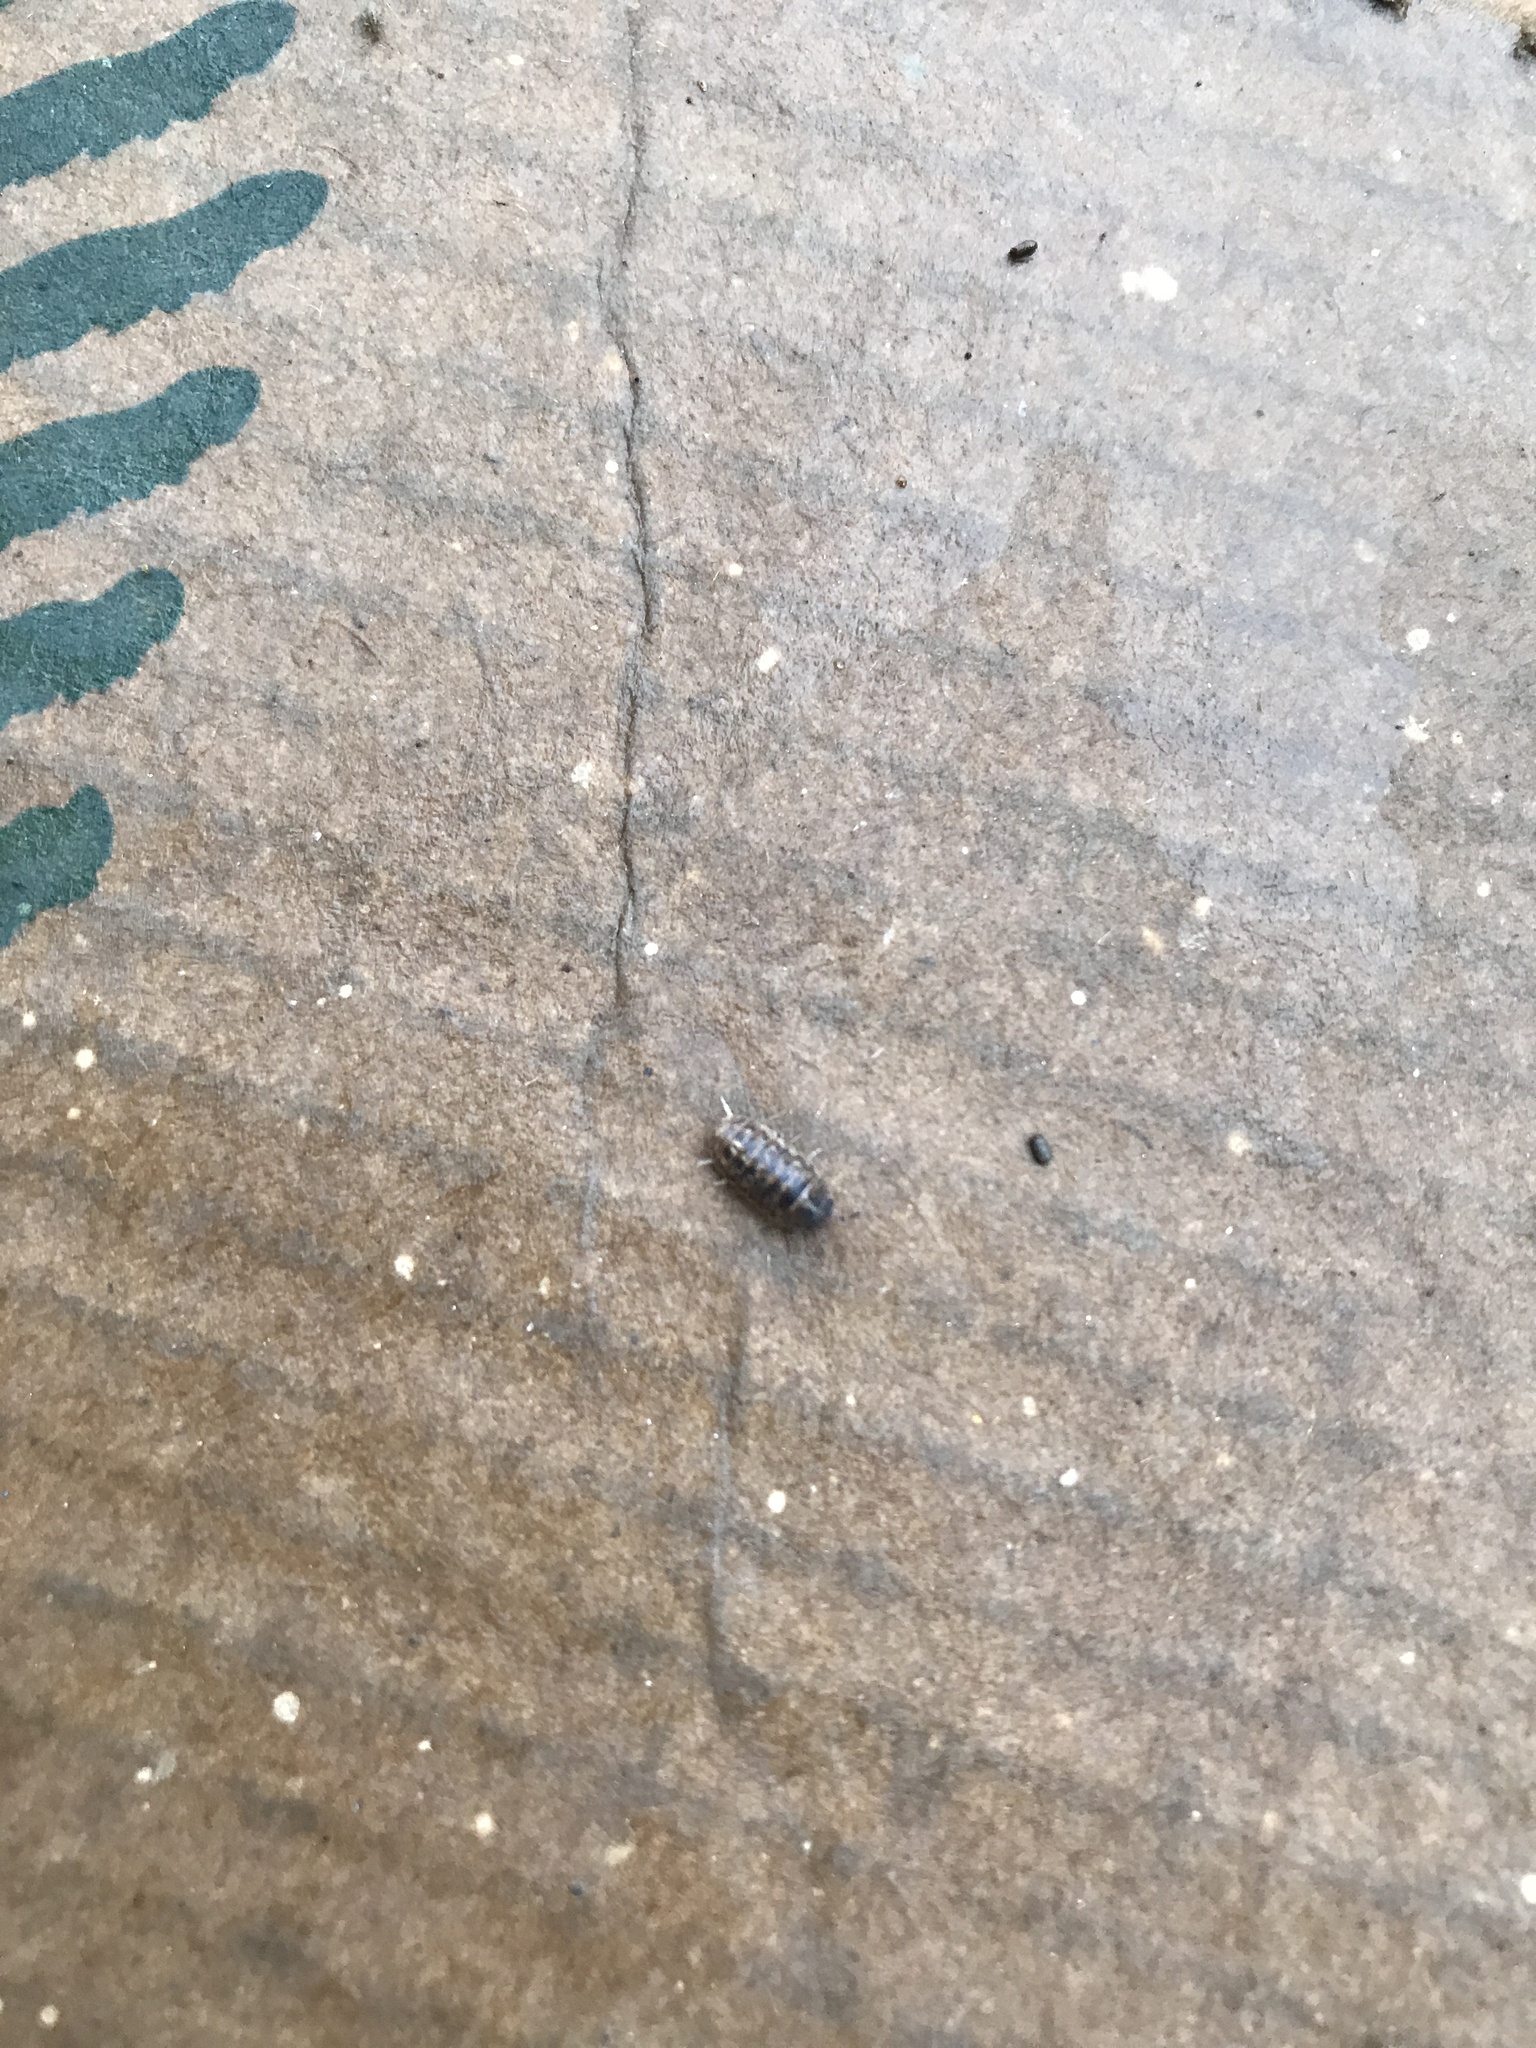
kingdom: Animalia
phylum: Arthropoda
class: Malacostraca
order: Isopoda
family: Armadillidiidae
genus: Armadillidium
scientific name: Armadillidium vulgare
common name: Common pill woodlouse
